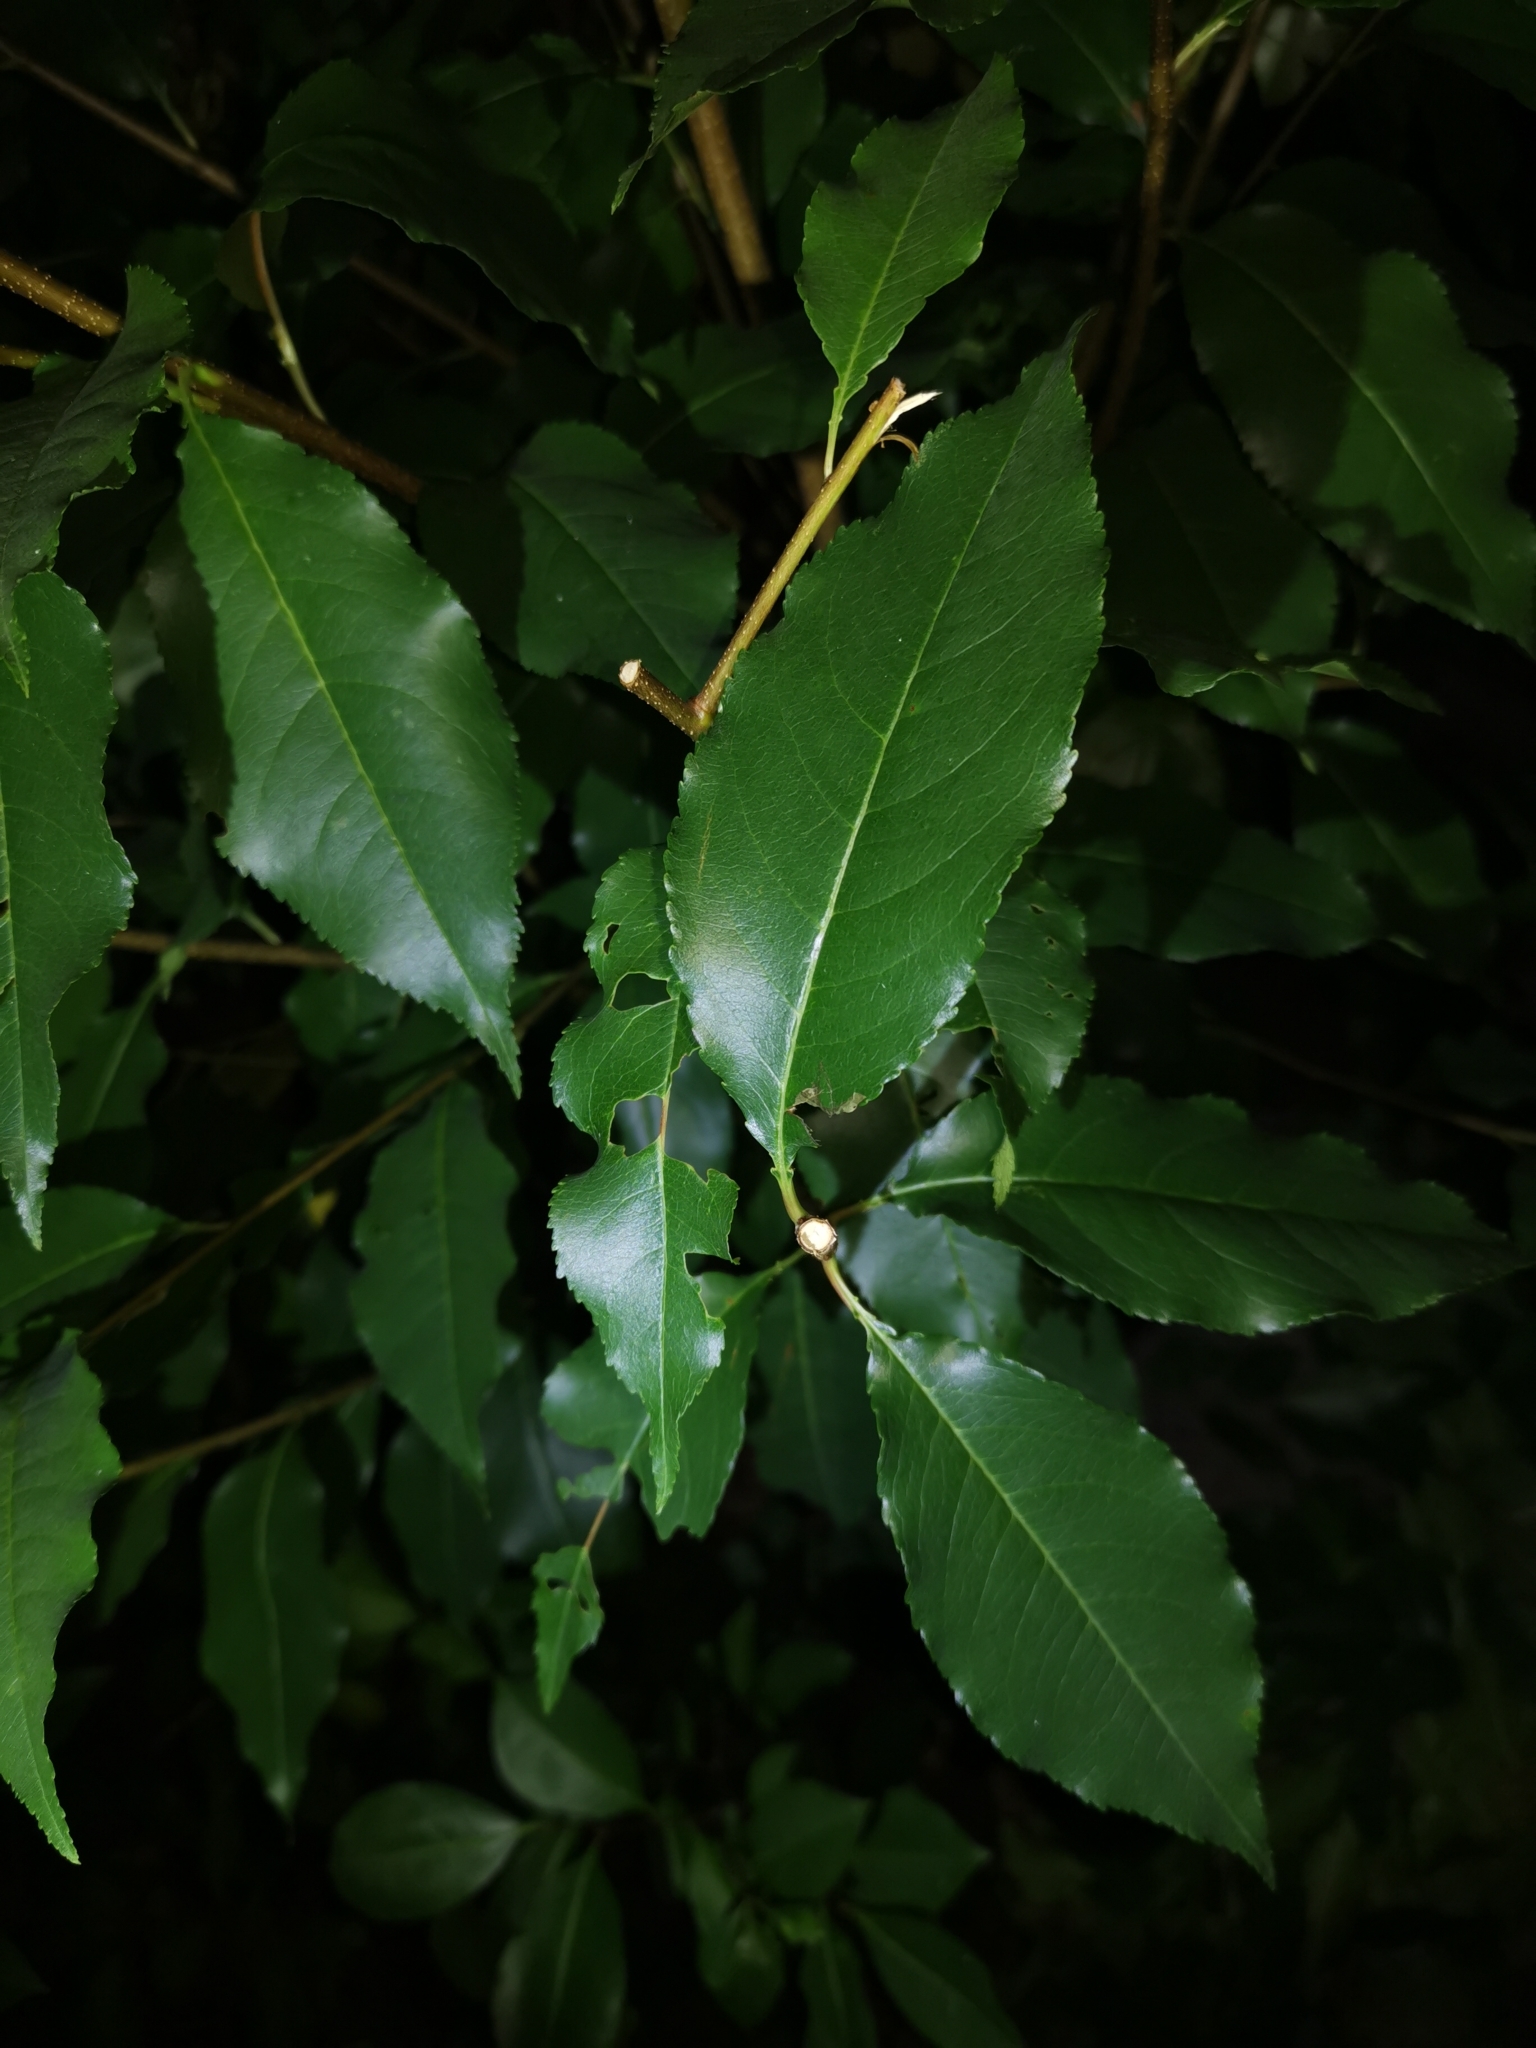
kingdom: Plantae
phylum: Tracheophyta
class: Magnoliopsida
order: Rosales
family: Rosaceae
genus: Prunus
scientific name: Prunus serotina
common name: Black cherry
